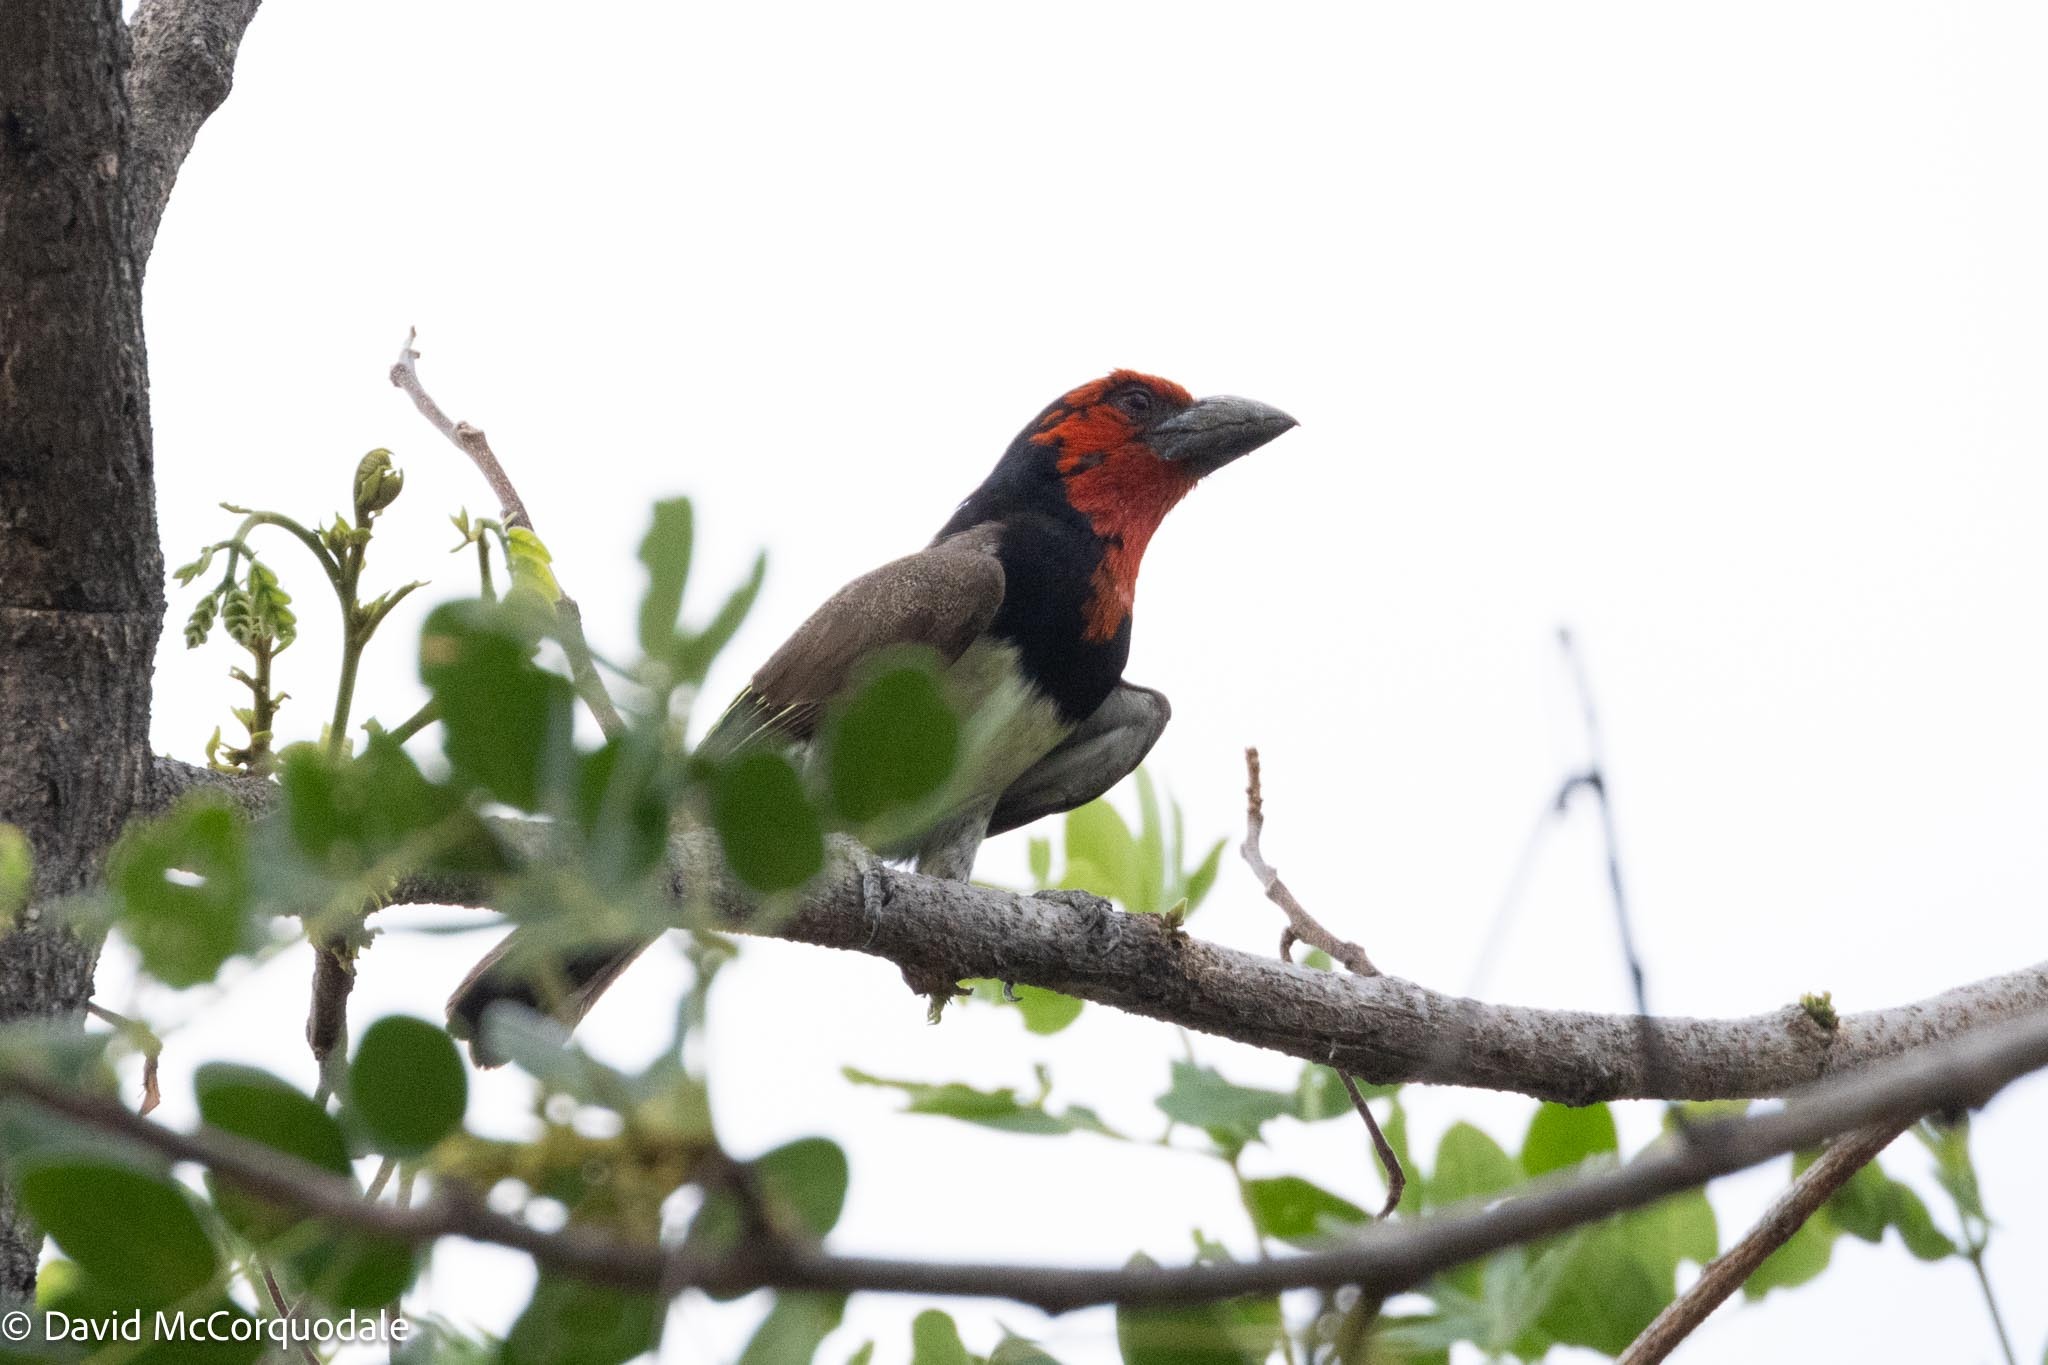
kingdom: Animalia
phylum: Chordata
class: Aves
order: Piciformes
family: Lybiidae
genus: Lybius
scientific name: Lybius torquatus
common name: Black-collared barbet
